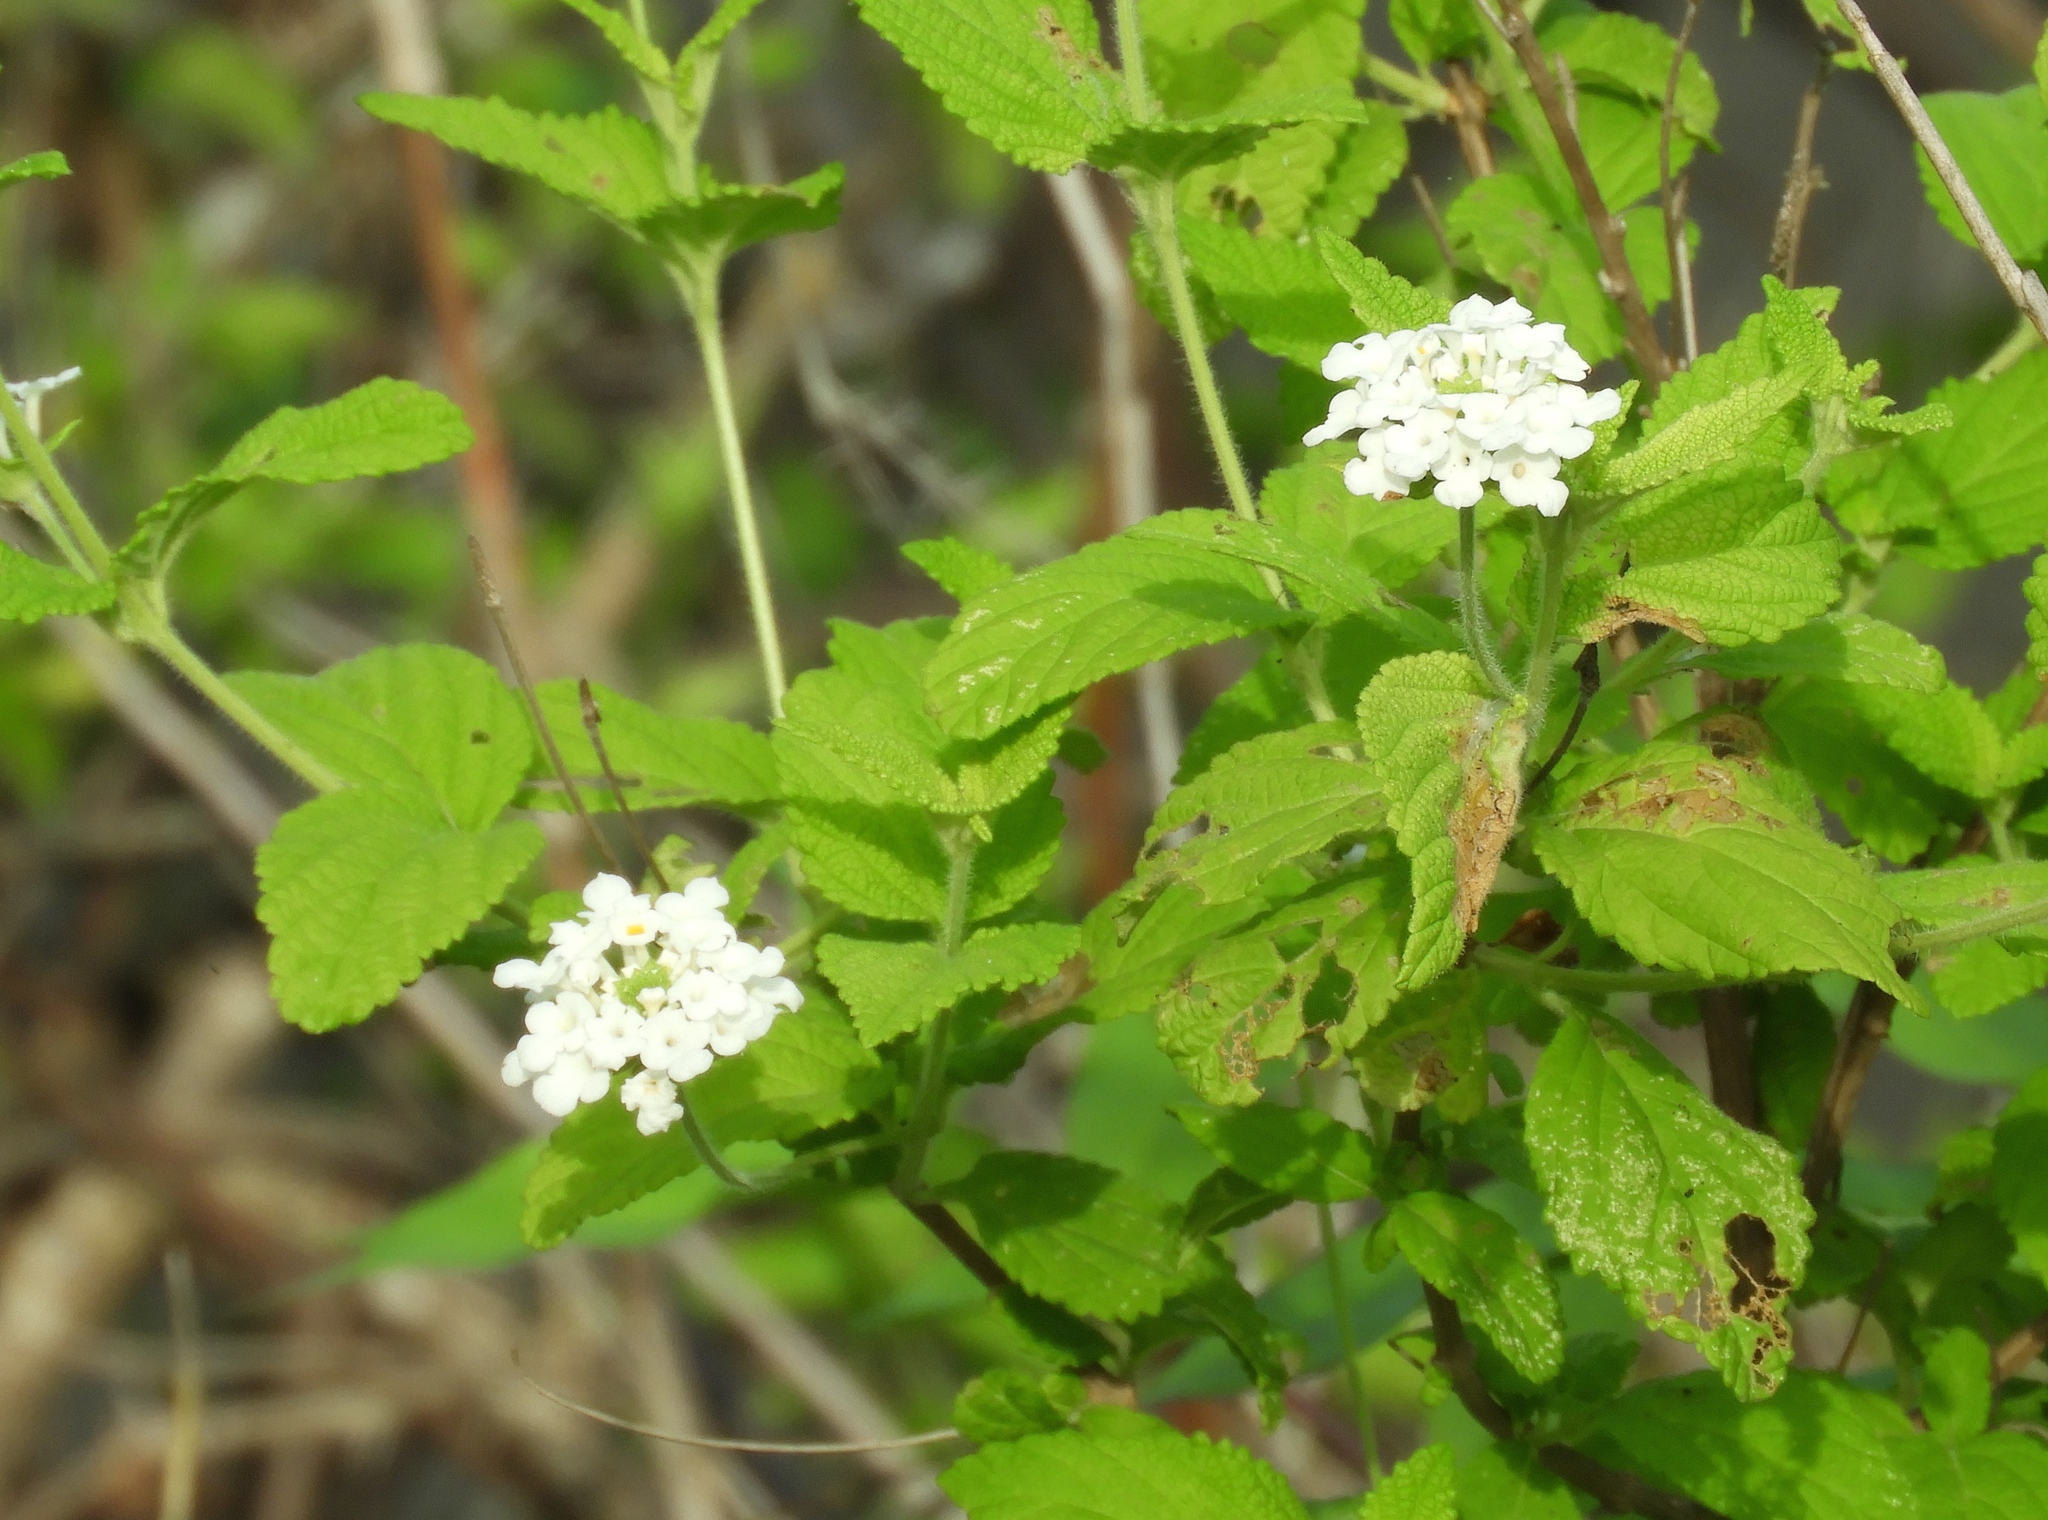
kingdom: Plantae
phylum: Tracheophyta
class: Magnoliopsida
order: Lamiales
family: Verbenaceae
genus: Lantana
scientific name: Lantana velutina
